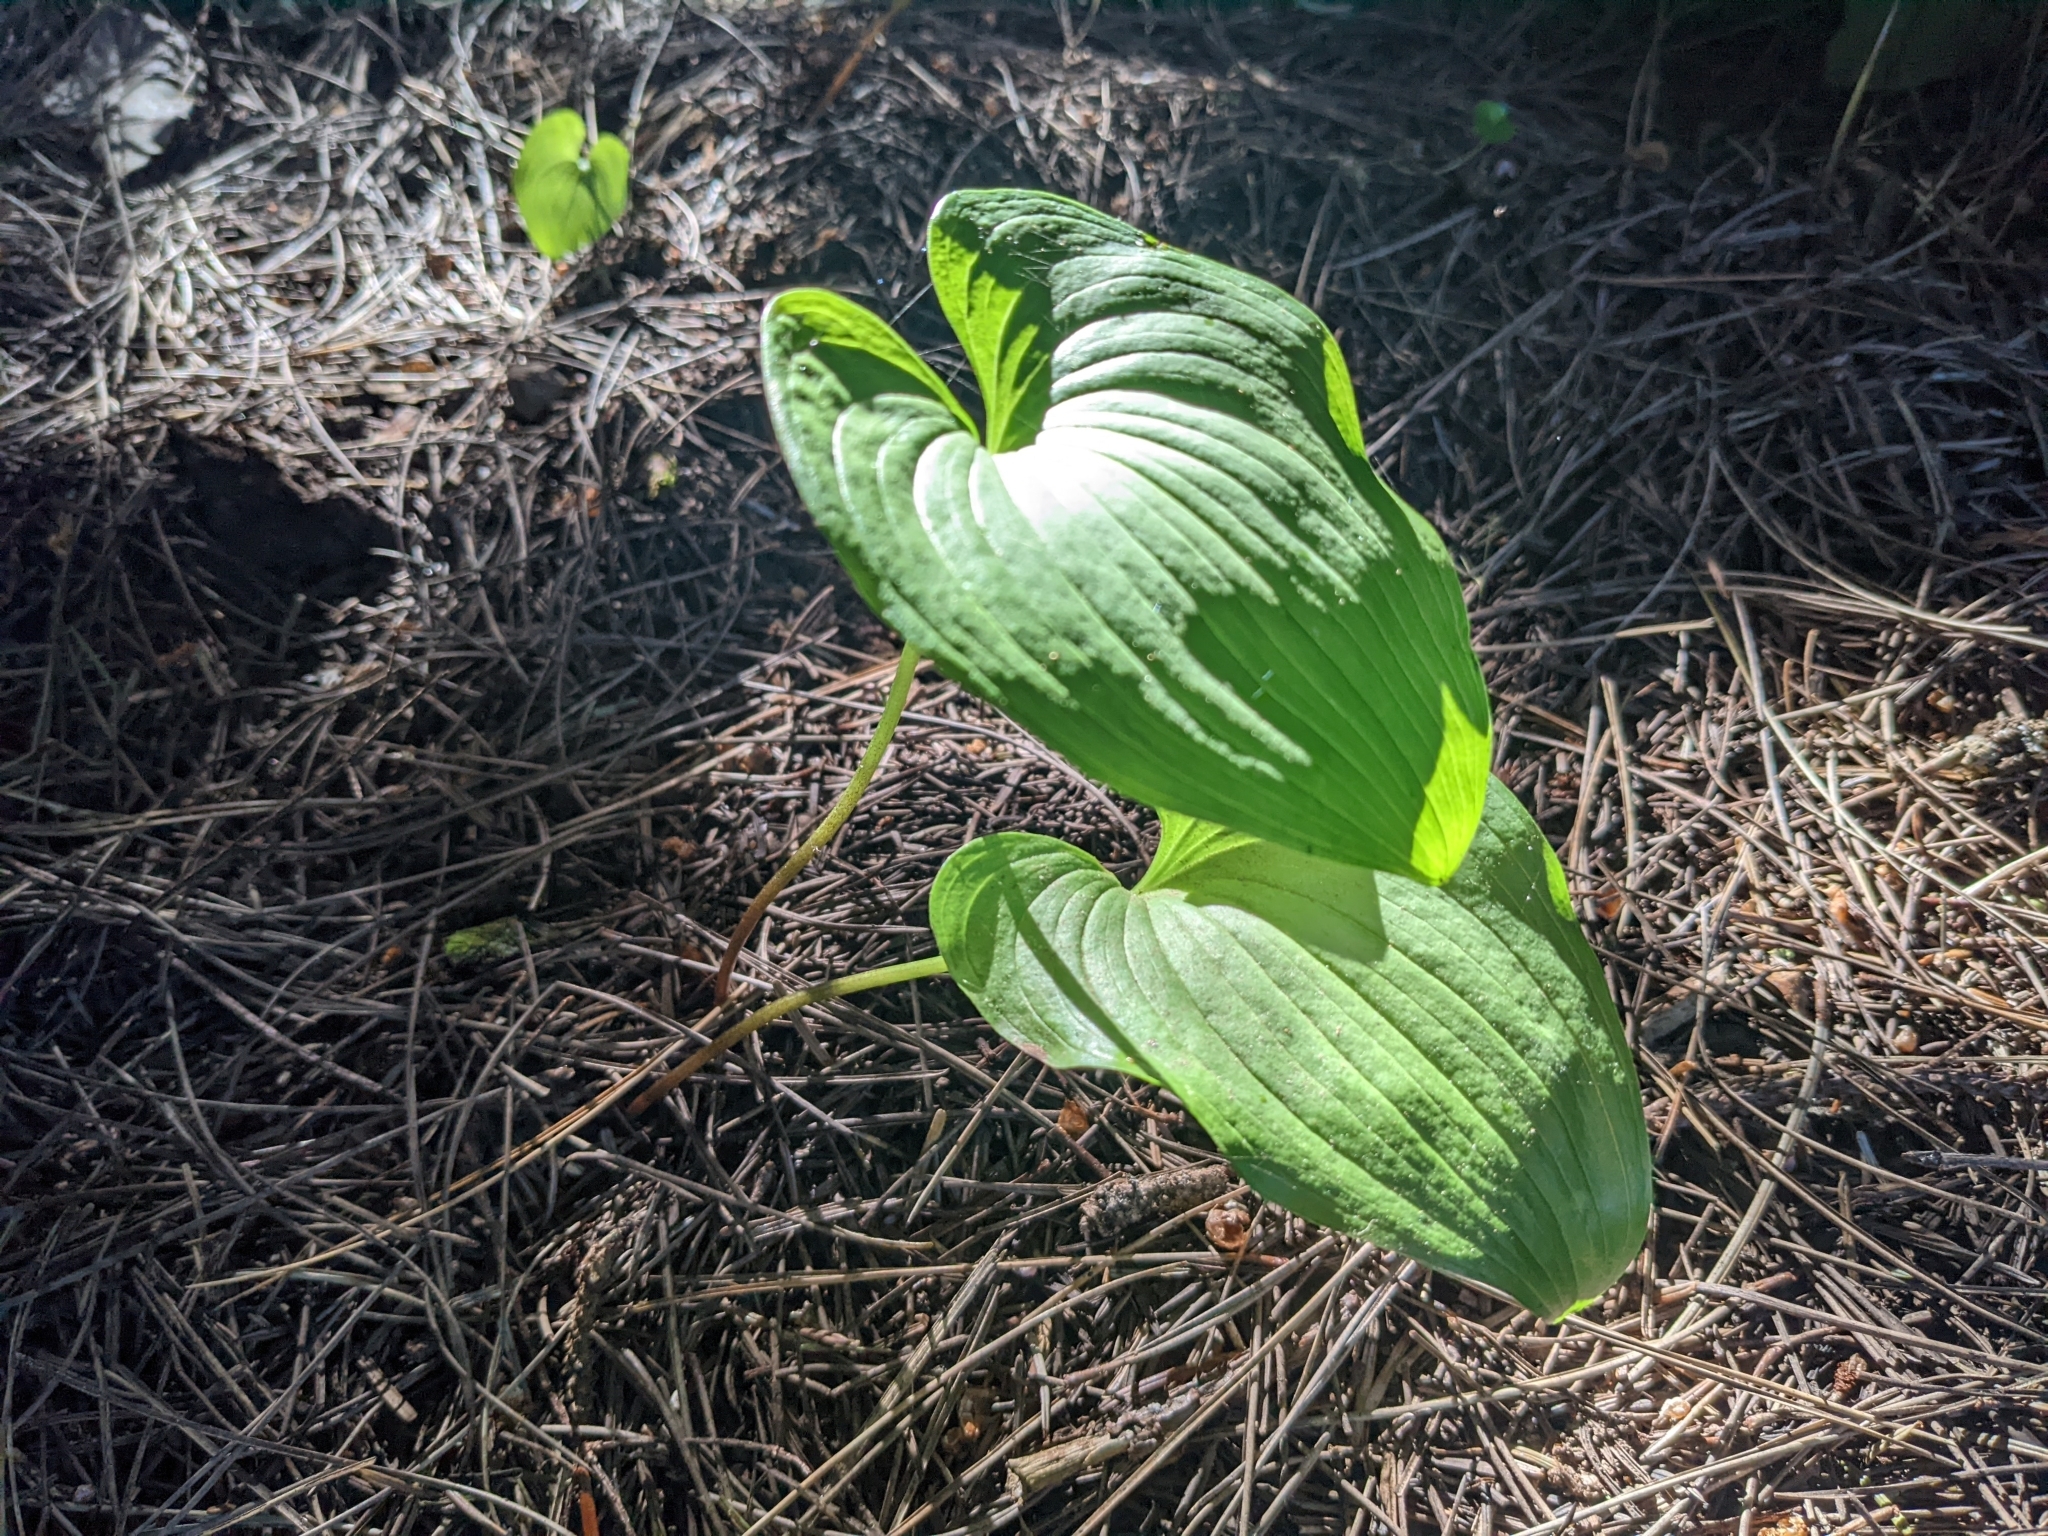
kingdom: Plantae
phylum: Tracheophyta
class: Liliopsida
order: Asparagales
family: Asparagaceae
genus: Maianthemum
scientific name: Maianthemum dilatatum
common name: False lily-of-the-valley
